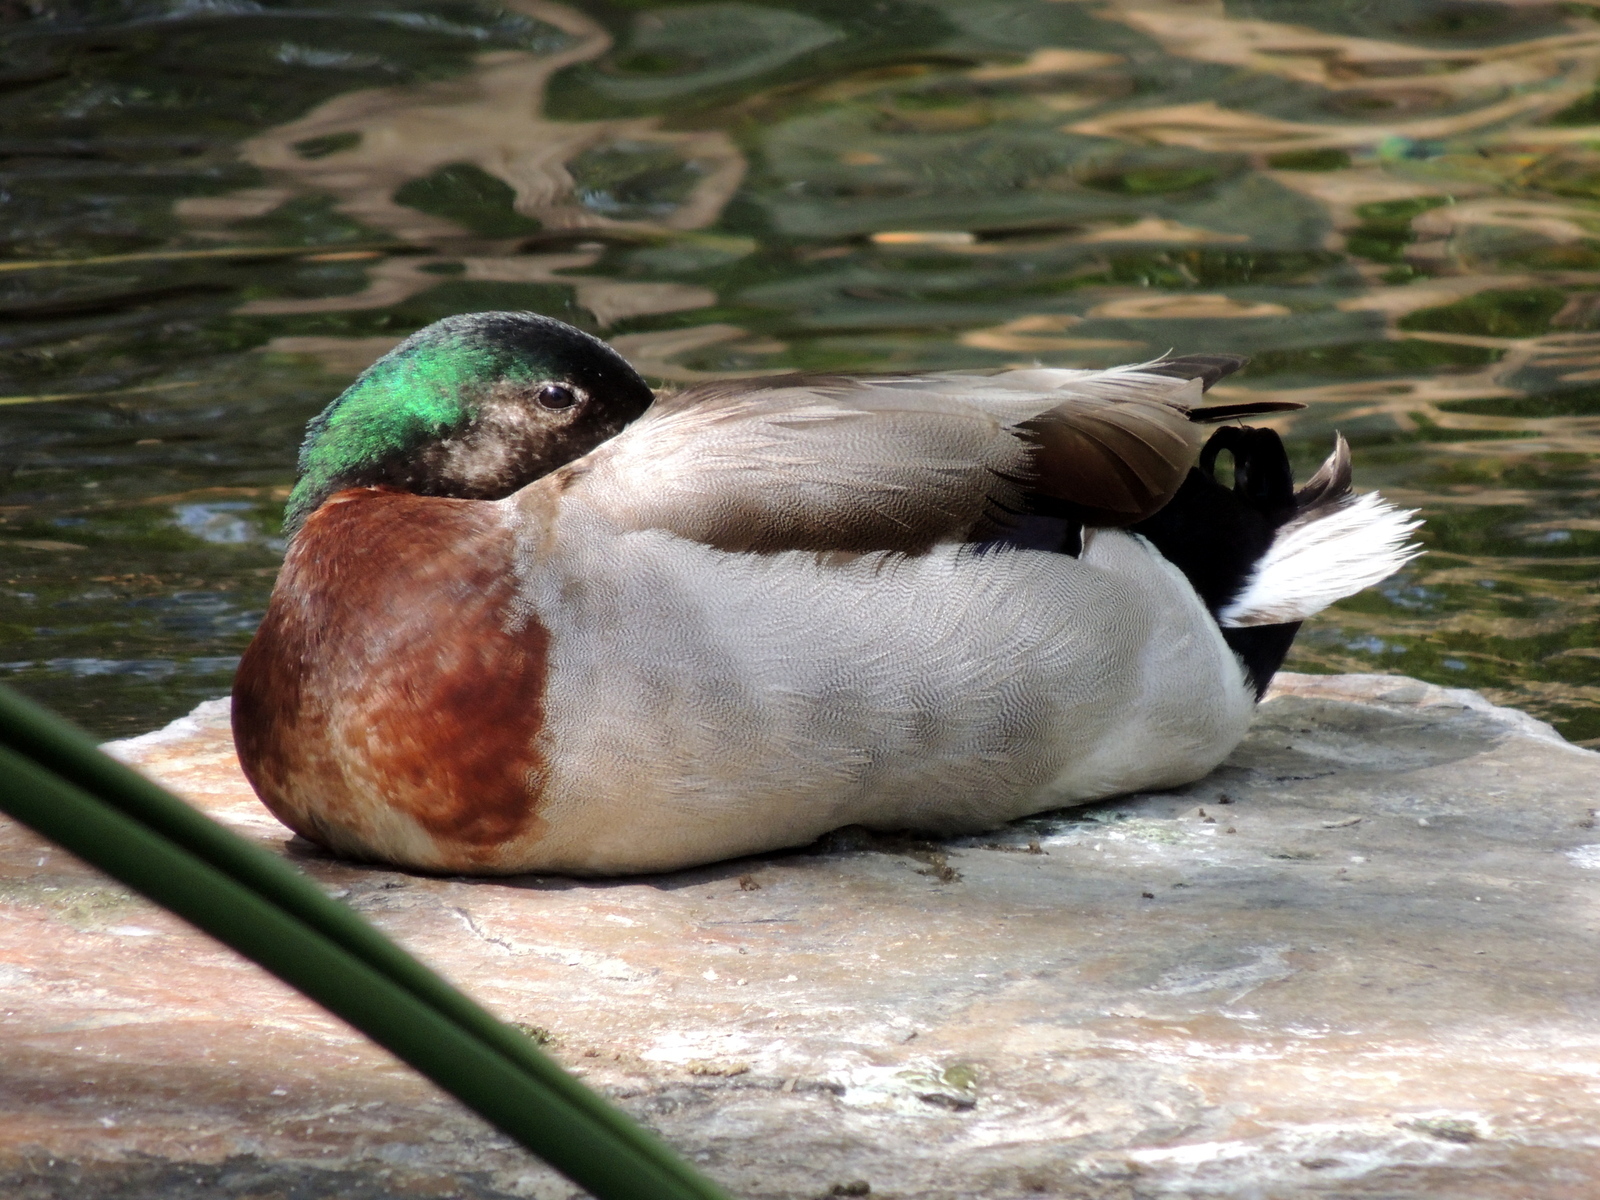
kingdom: Animalia
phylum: Chordata
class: Aves
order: Anseriformes
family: Anatidae
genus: Anas
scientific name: Anas platyrhynchos
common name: Mallard
